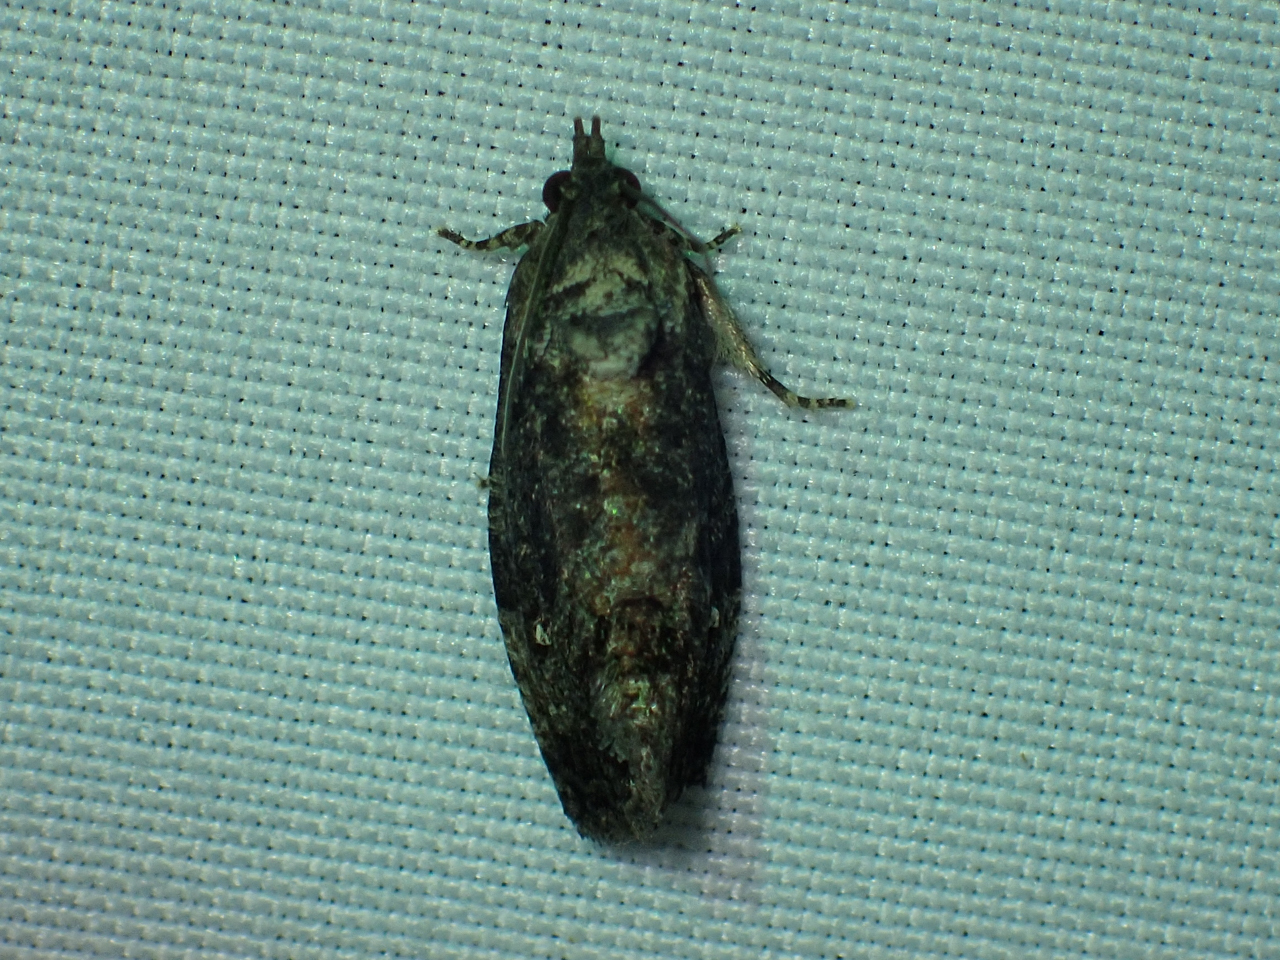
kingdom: Animalia
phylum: Arthropoda
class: Insecta
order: Lepidoptera
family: Tortricidae
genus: Gymnandrosoma
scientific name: Gymnandrosoma punctidiscanum
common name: Dotted ecdytolopha moth
